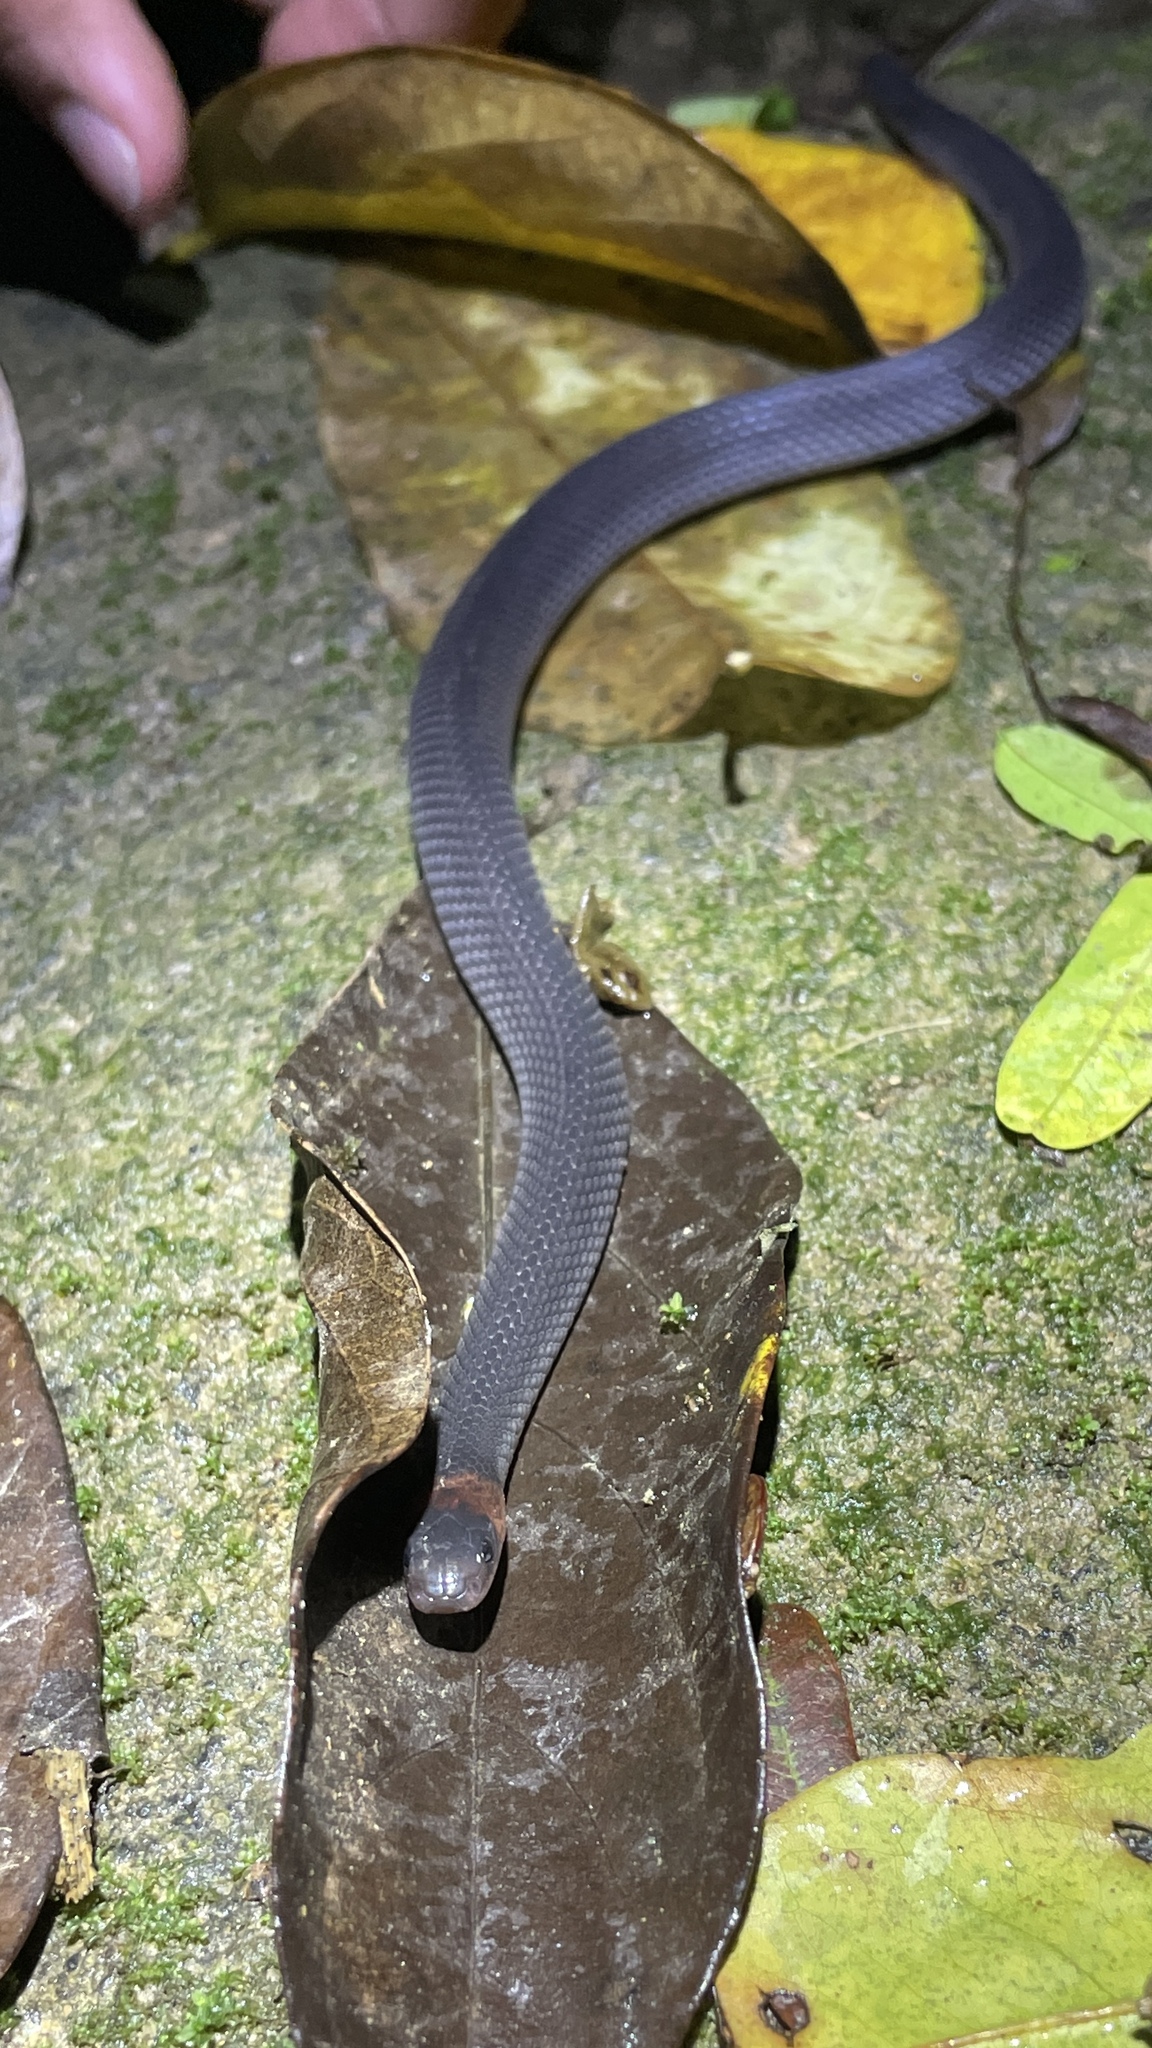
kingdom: Animalia
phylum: Chordata
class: Squamata
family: Colubridae
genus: Ninia
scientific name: Ninia atrata
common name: Hallowell's coffee snake
